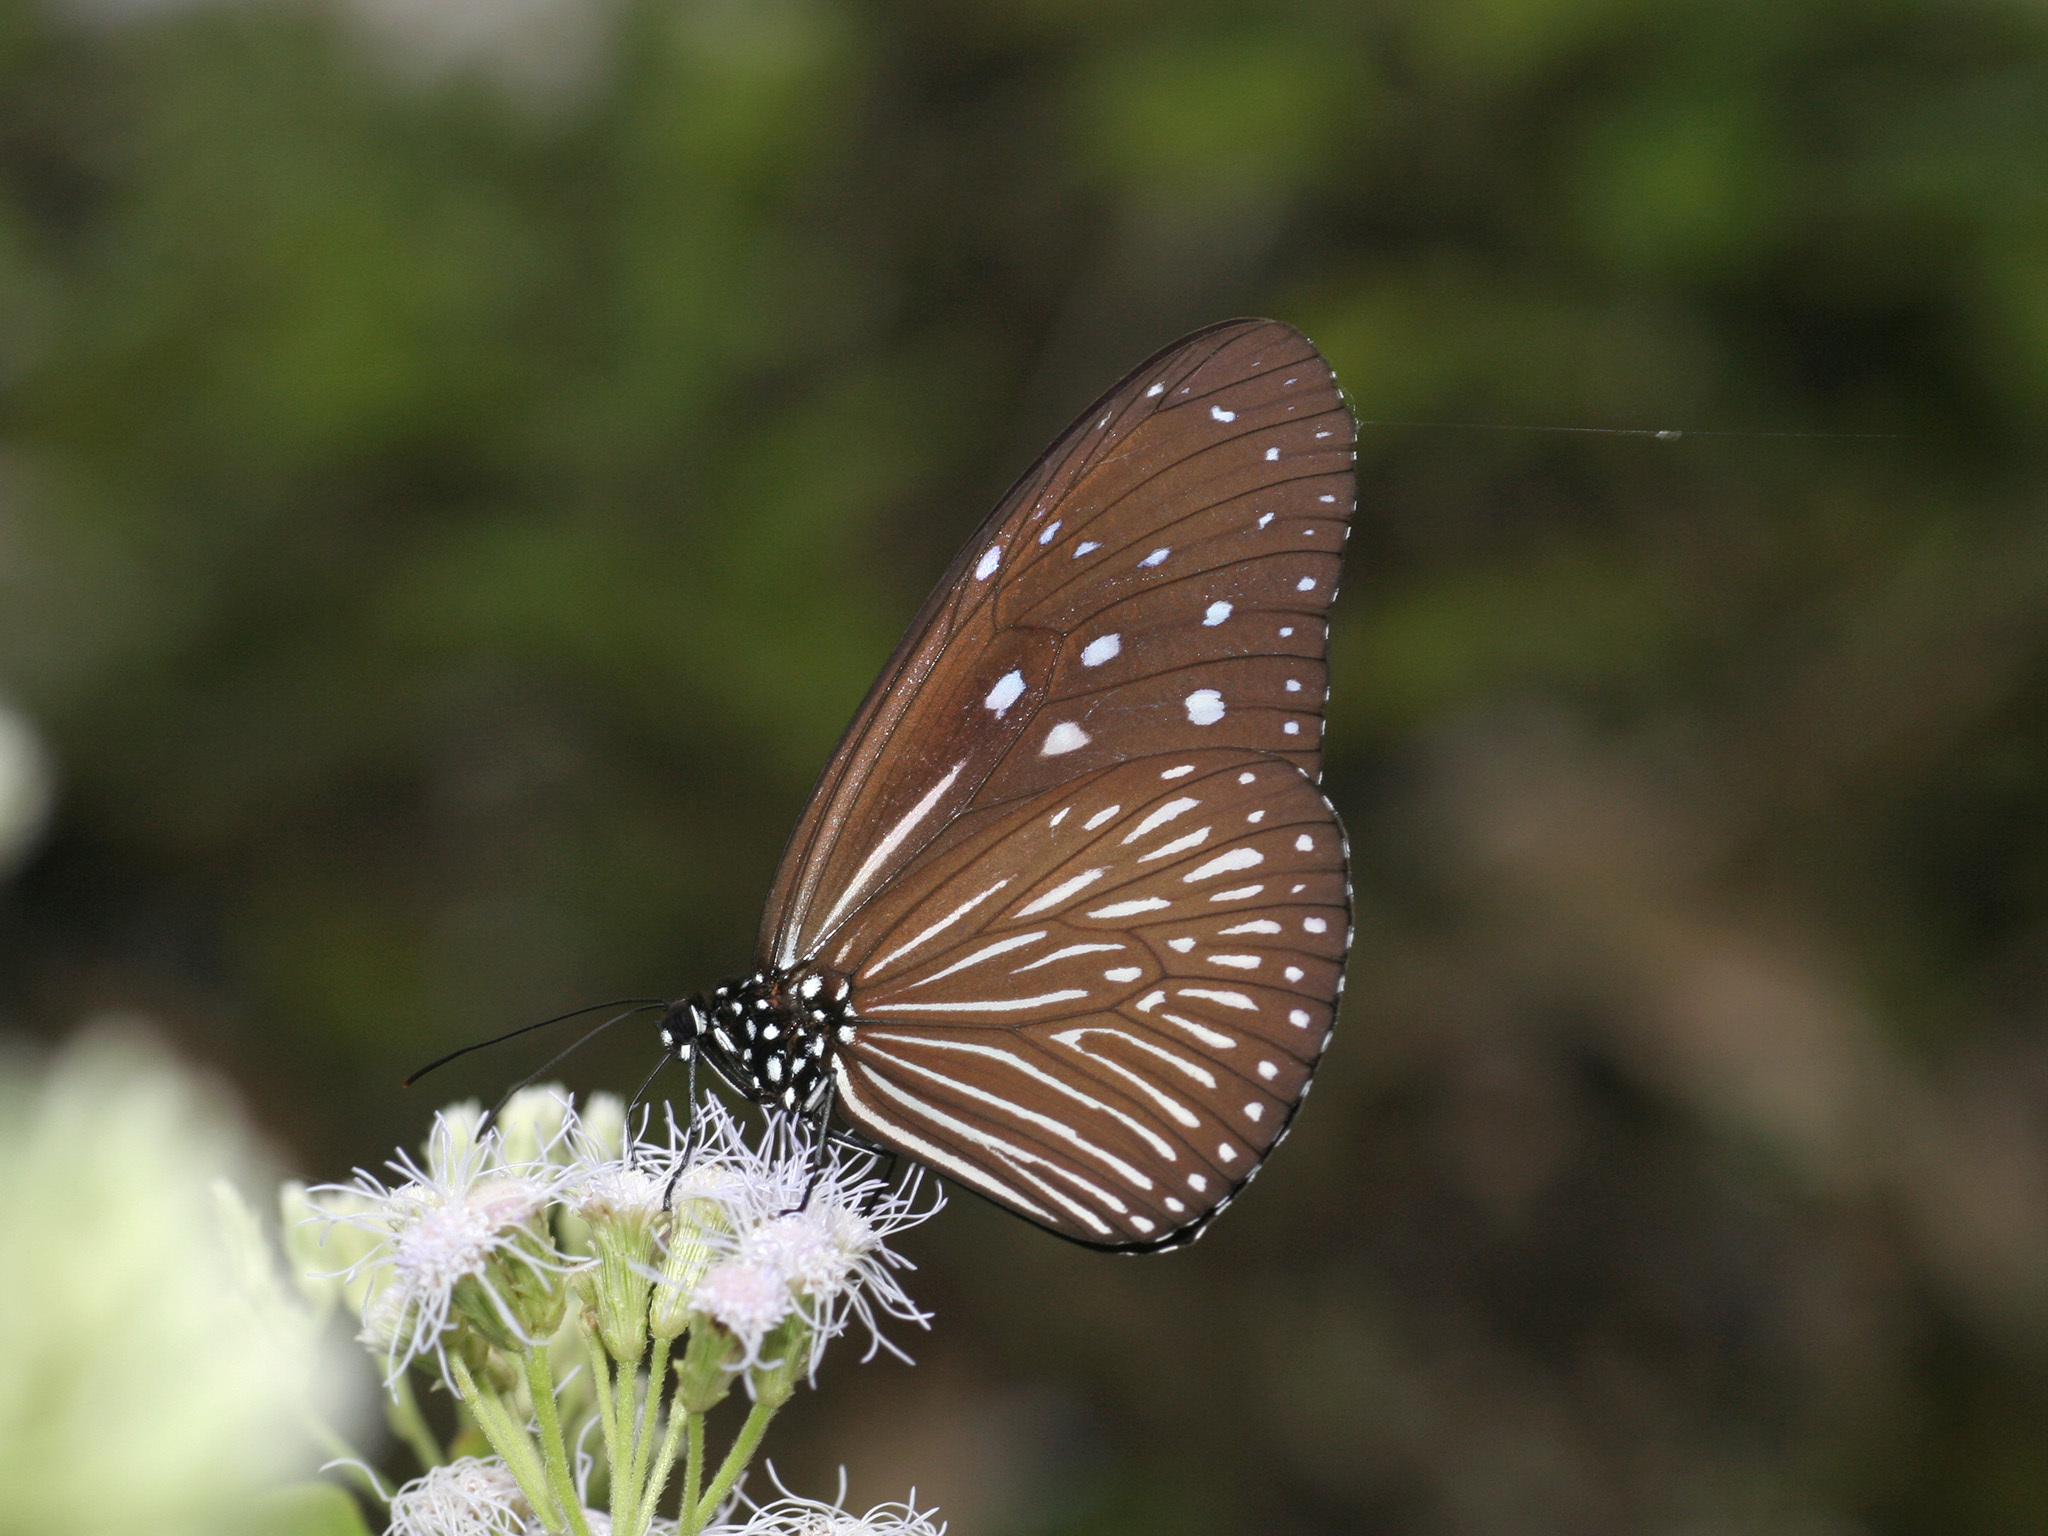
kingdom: Animalia
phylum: Arthropoda
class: Insecta
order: Lepidoptera
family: Nymphalidae
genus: Euploea
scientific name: Euploea mulciber
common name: Striped blue crow butterfly
